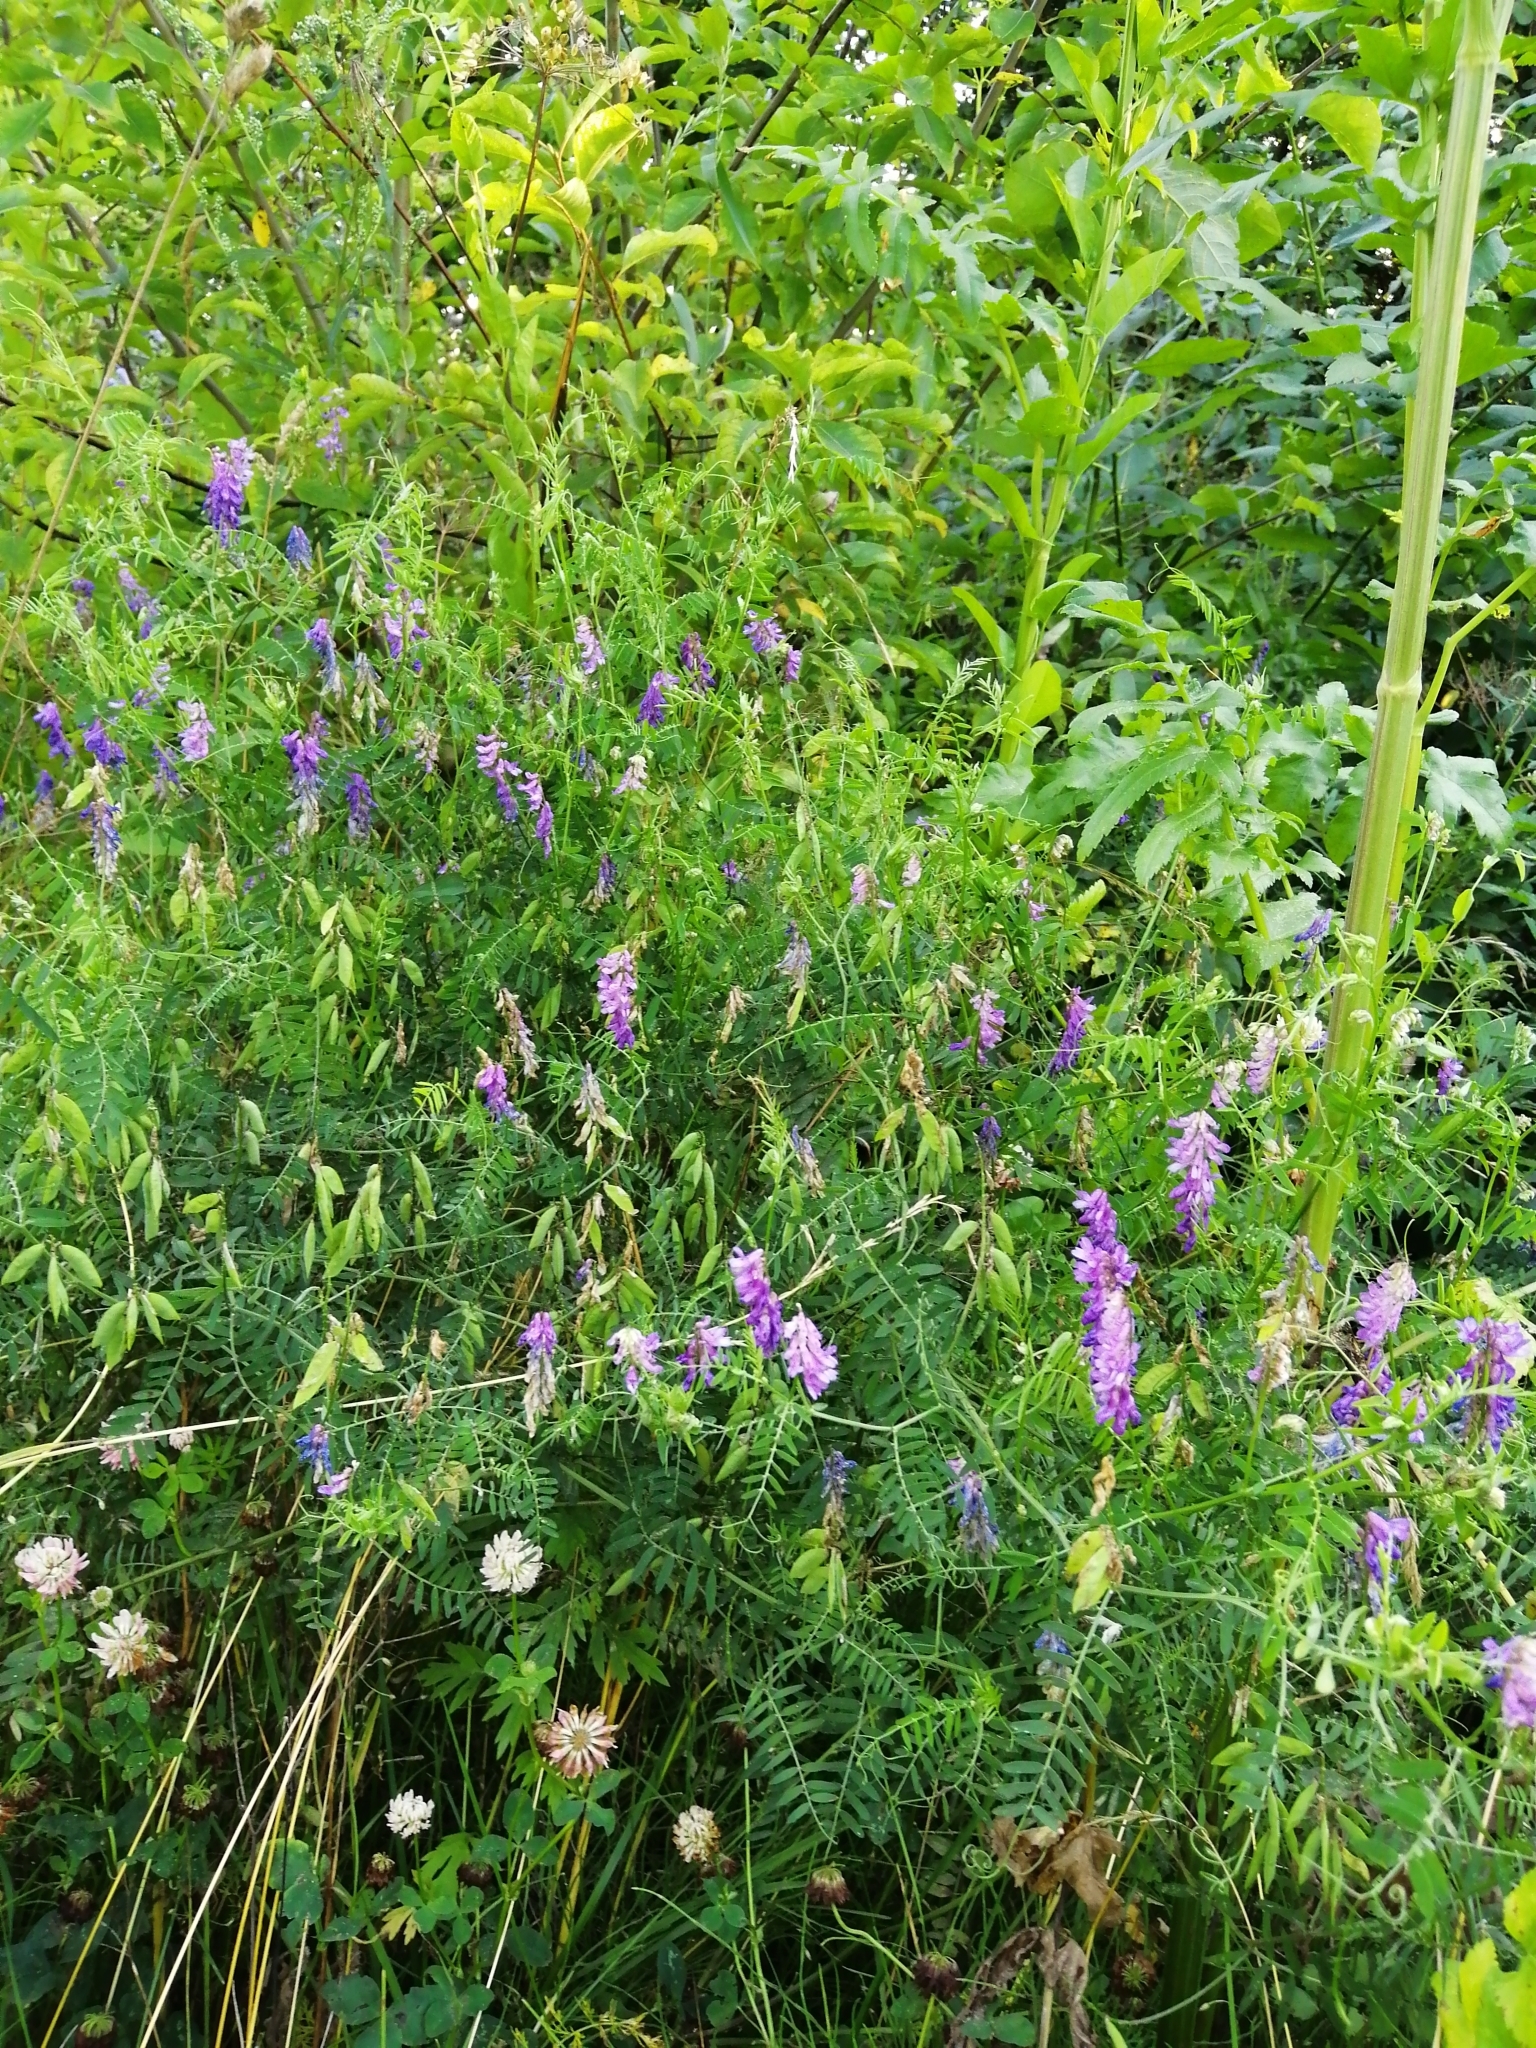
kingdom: Plantae
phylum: Tracheophyta
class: Magnoliopsida
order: Fabales
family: Fabaceae
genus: Vicia
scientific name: Vicia cracca
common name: Bird vetch
